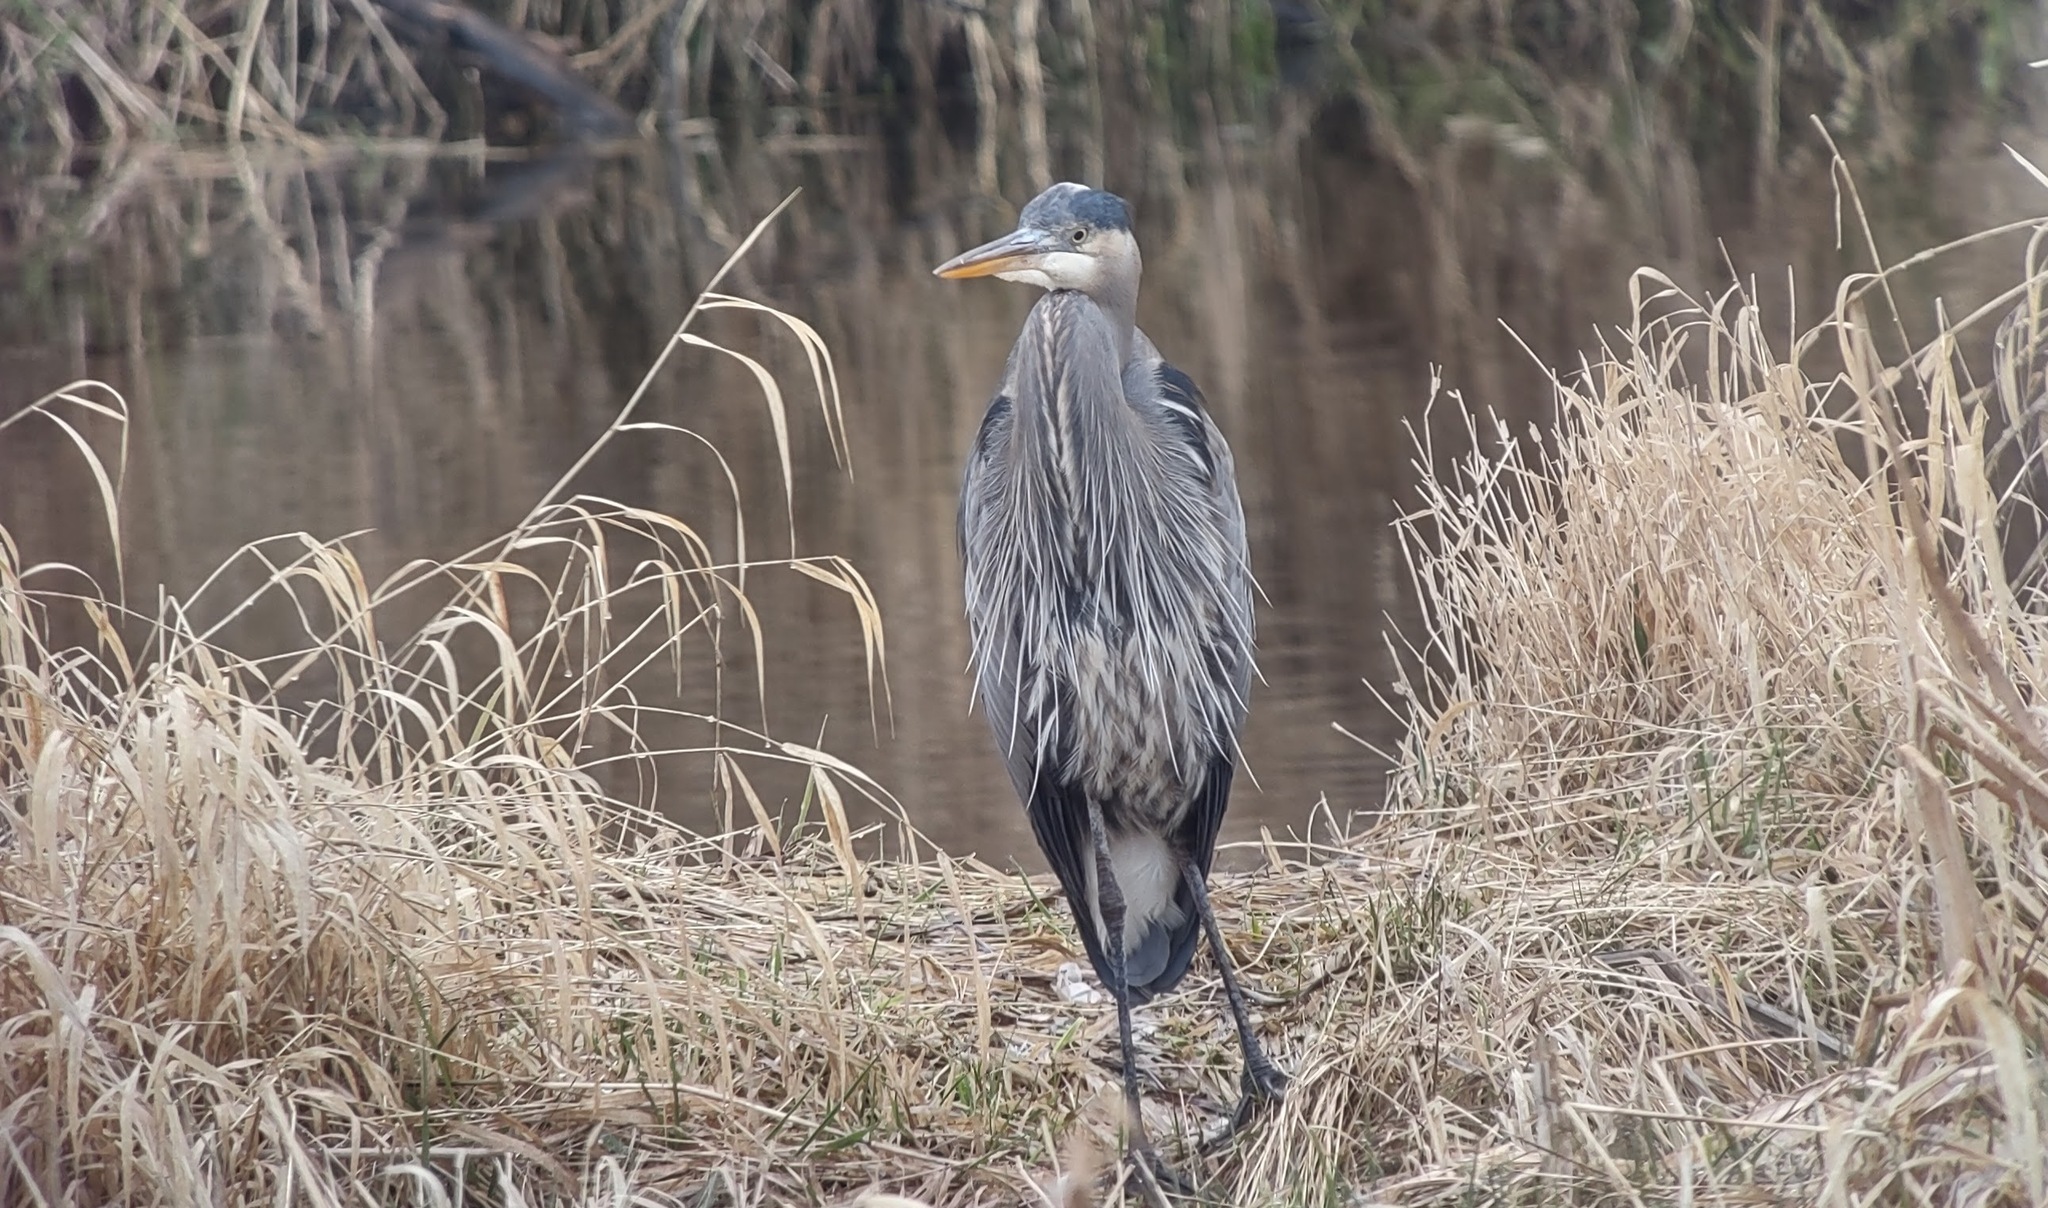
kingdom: Animalia
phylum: Chordata
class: Aves
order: Pelecaniformes
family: Ardeidae
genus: Ardea
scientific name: Ardea herodias
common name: Great blue heron
